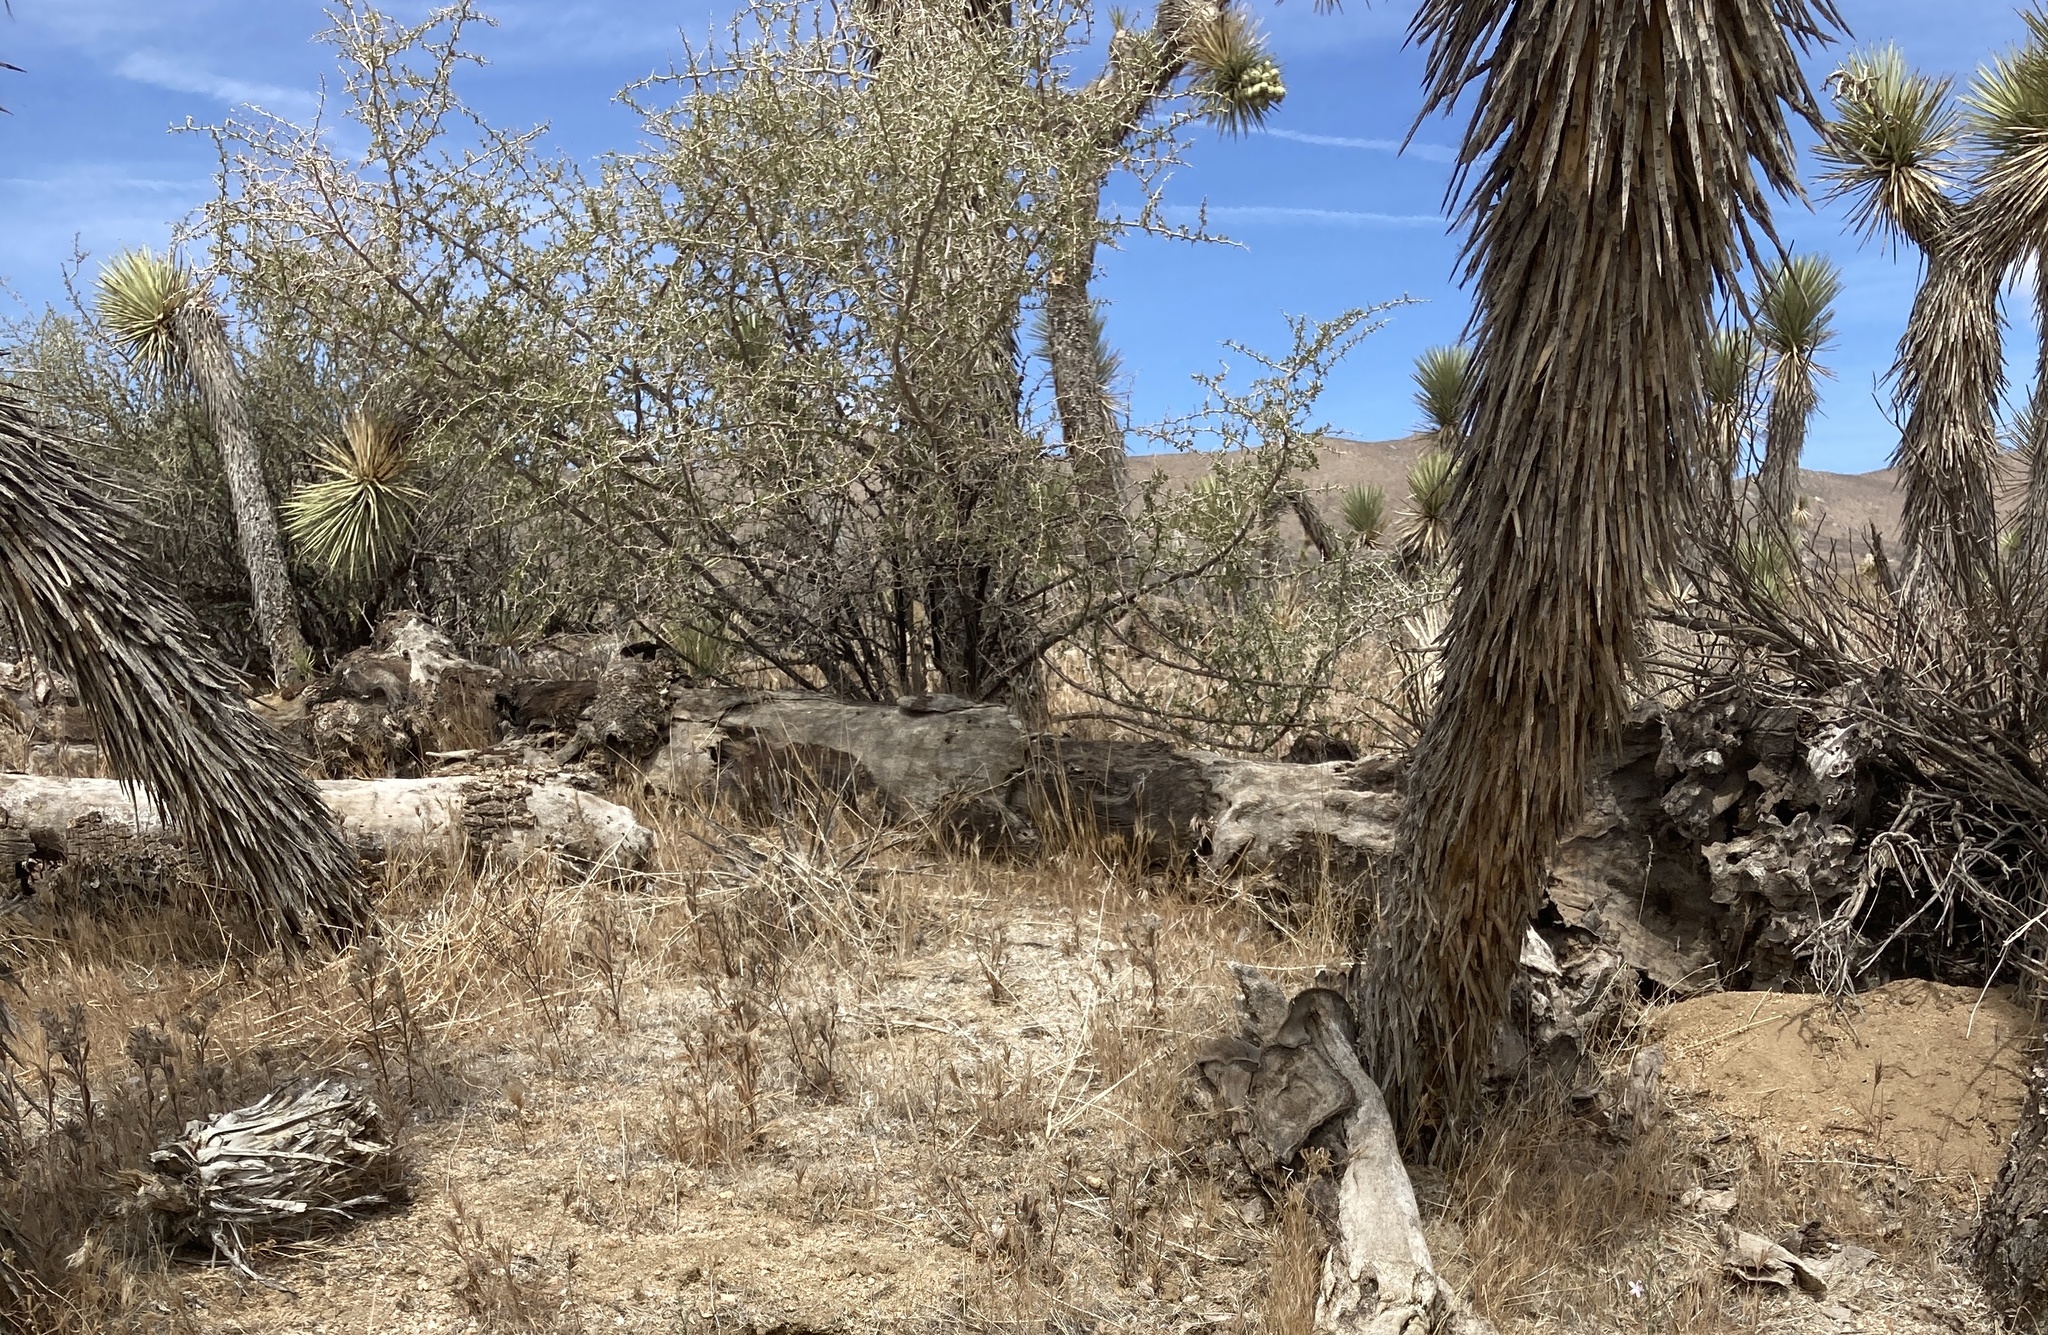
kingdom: Plantae
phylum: Tracheophyta
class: Liliopsida
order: Asparagales
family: Asparagaceae
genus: Yucca
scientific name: Yucca brevifolia
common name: Joshua tree
